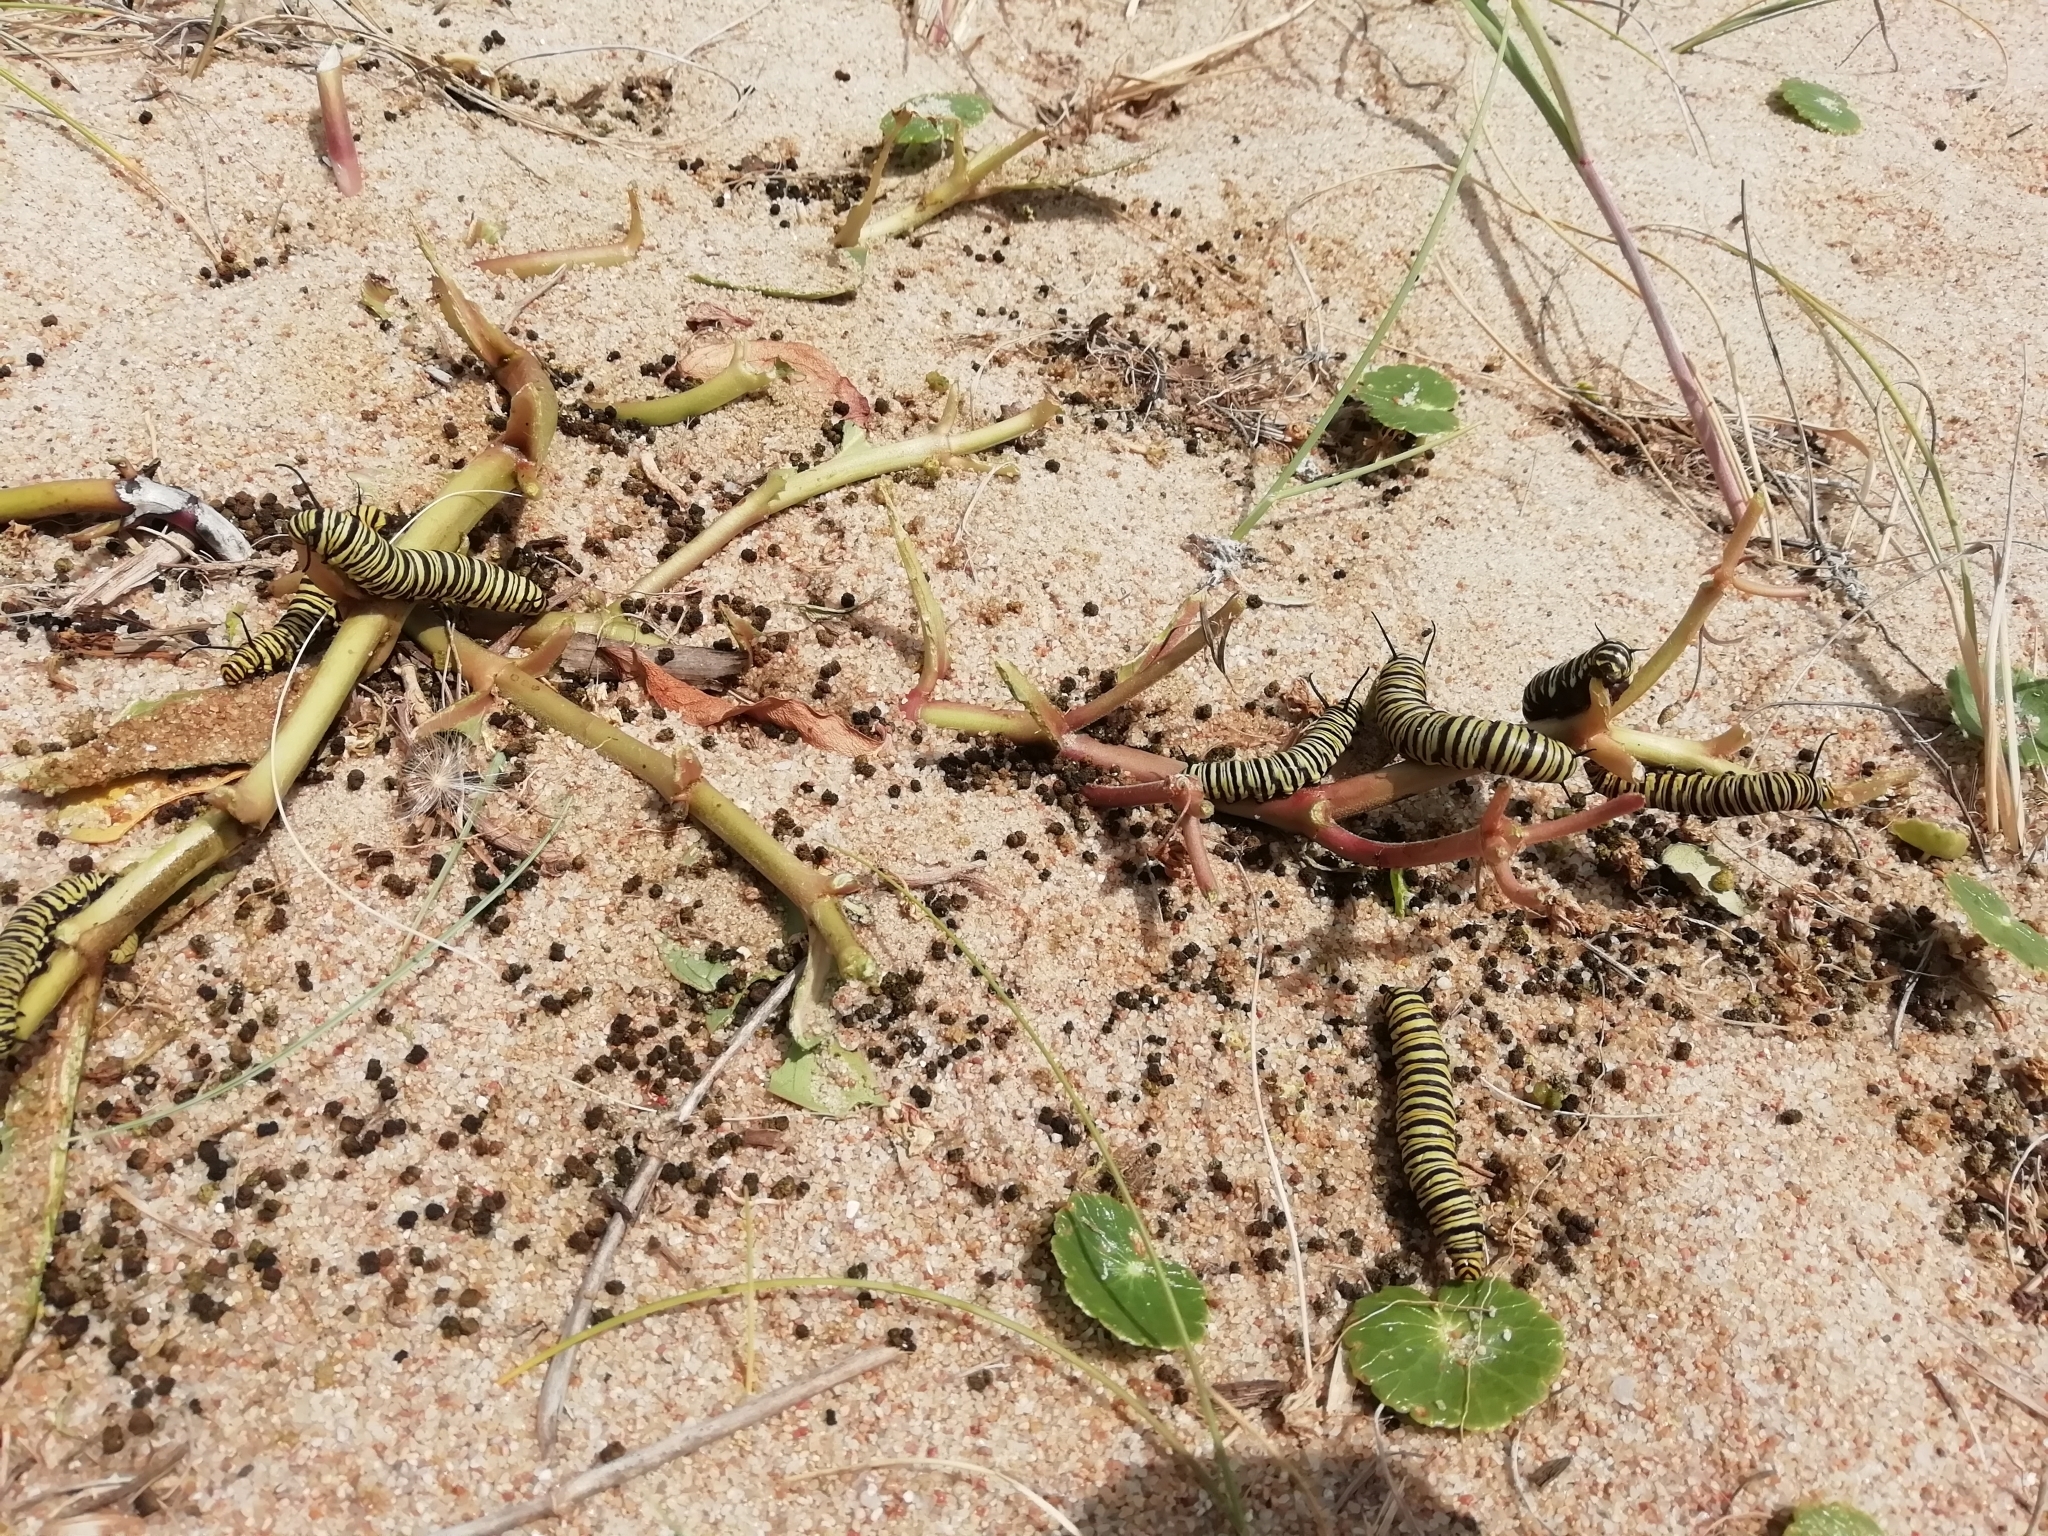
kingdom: Animalia
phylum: Arthropoda
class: Insecta
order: Lepidoptera
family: Nymphalidae
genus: Danaus
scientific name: Danaus erippus
